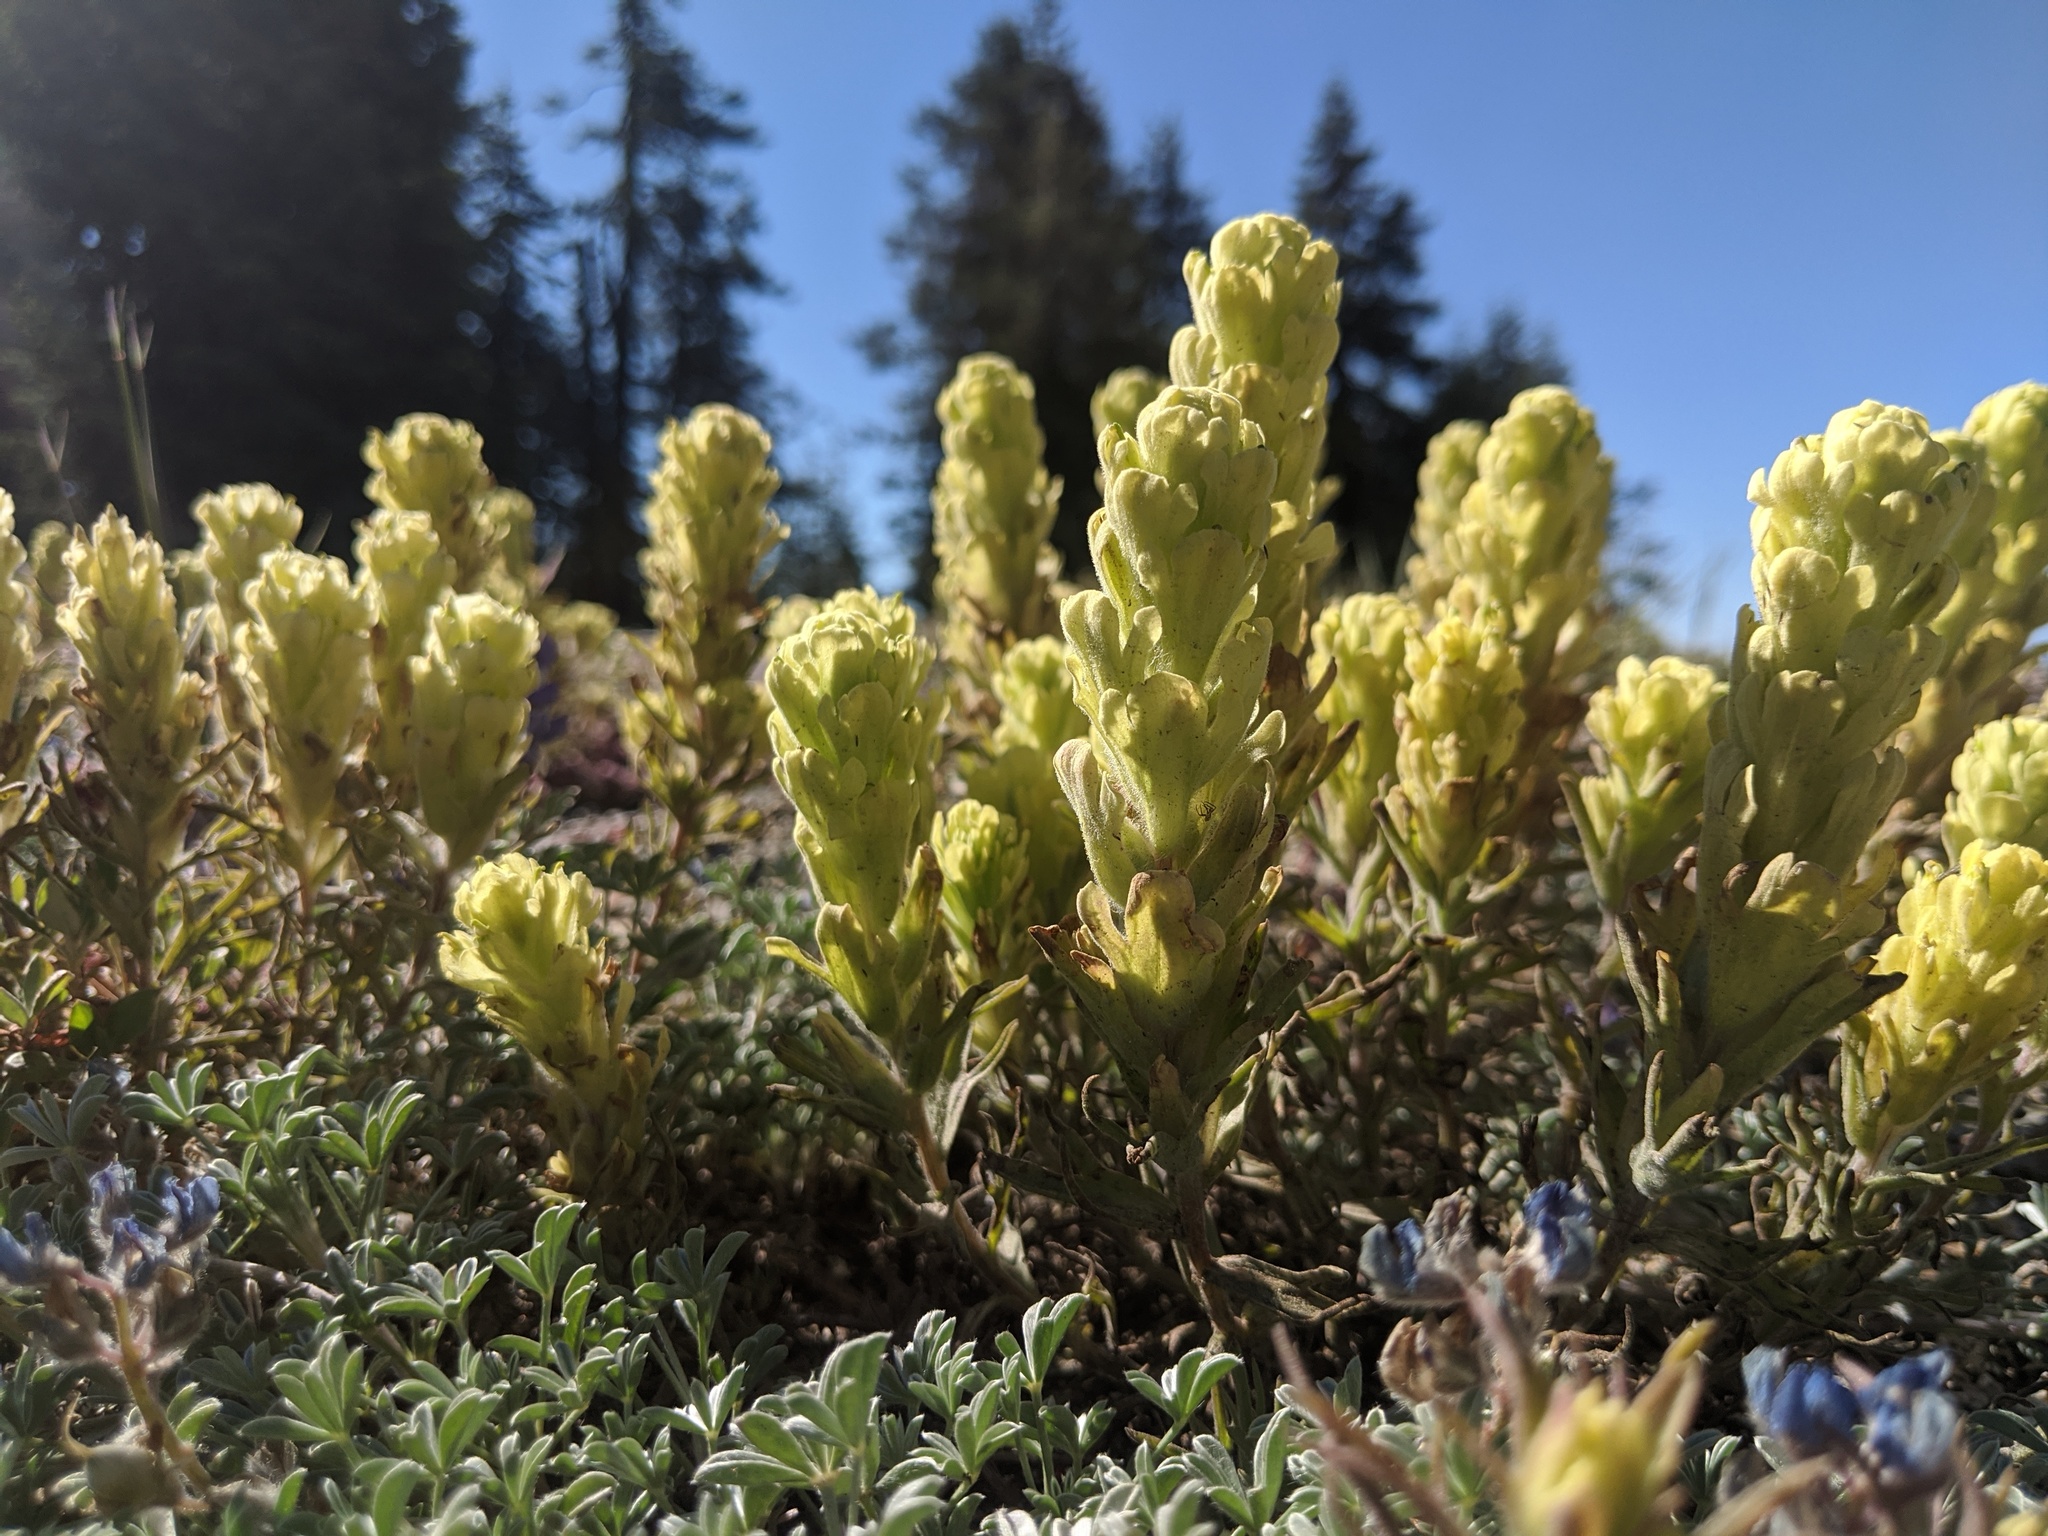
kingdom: Plantae
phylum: Tracheophyta
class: Magnoliopsida
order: Lamiales
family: Orobanchaceae
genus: Castilleja
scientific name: Castilleja arachnoidea
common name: Cobwebby indian paintbrush
